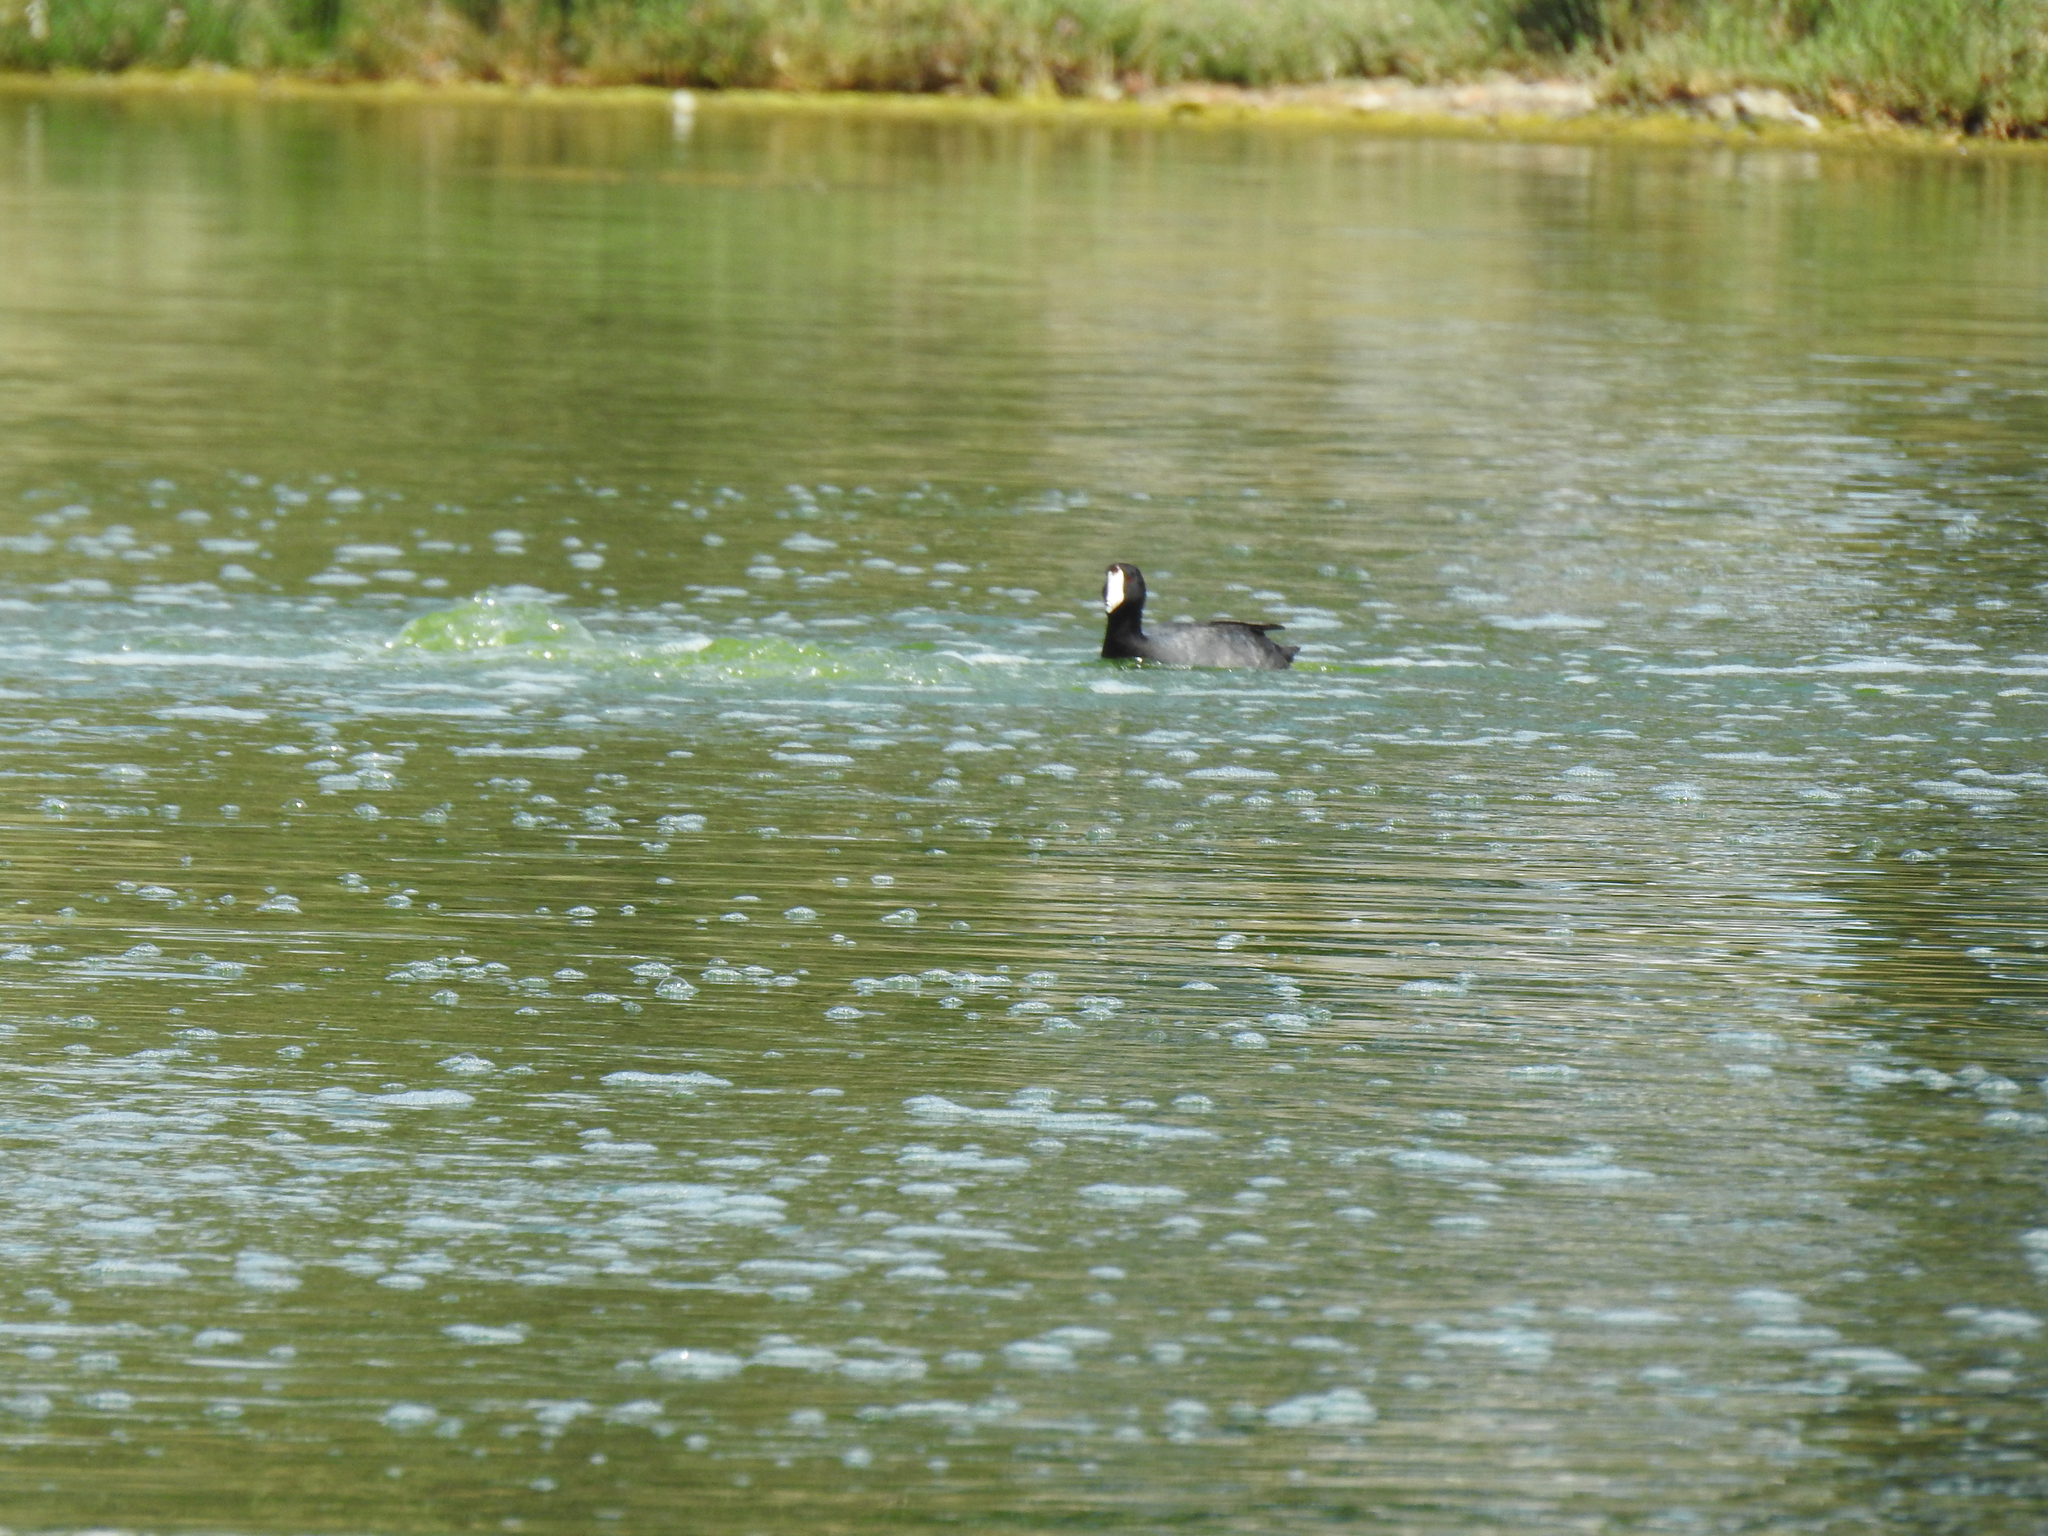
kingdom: Animalia
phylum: Chordata
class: Aves
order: Gruiformes
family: Rallidae
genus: Fulica
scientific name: Fulica americana
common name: American coot
